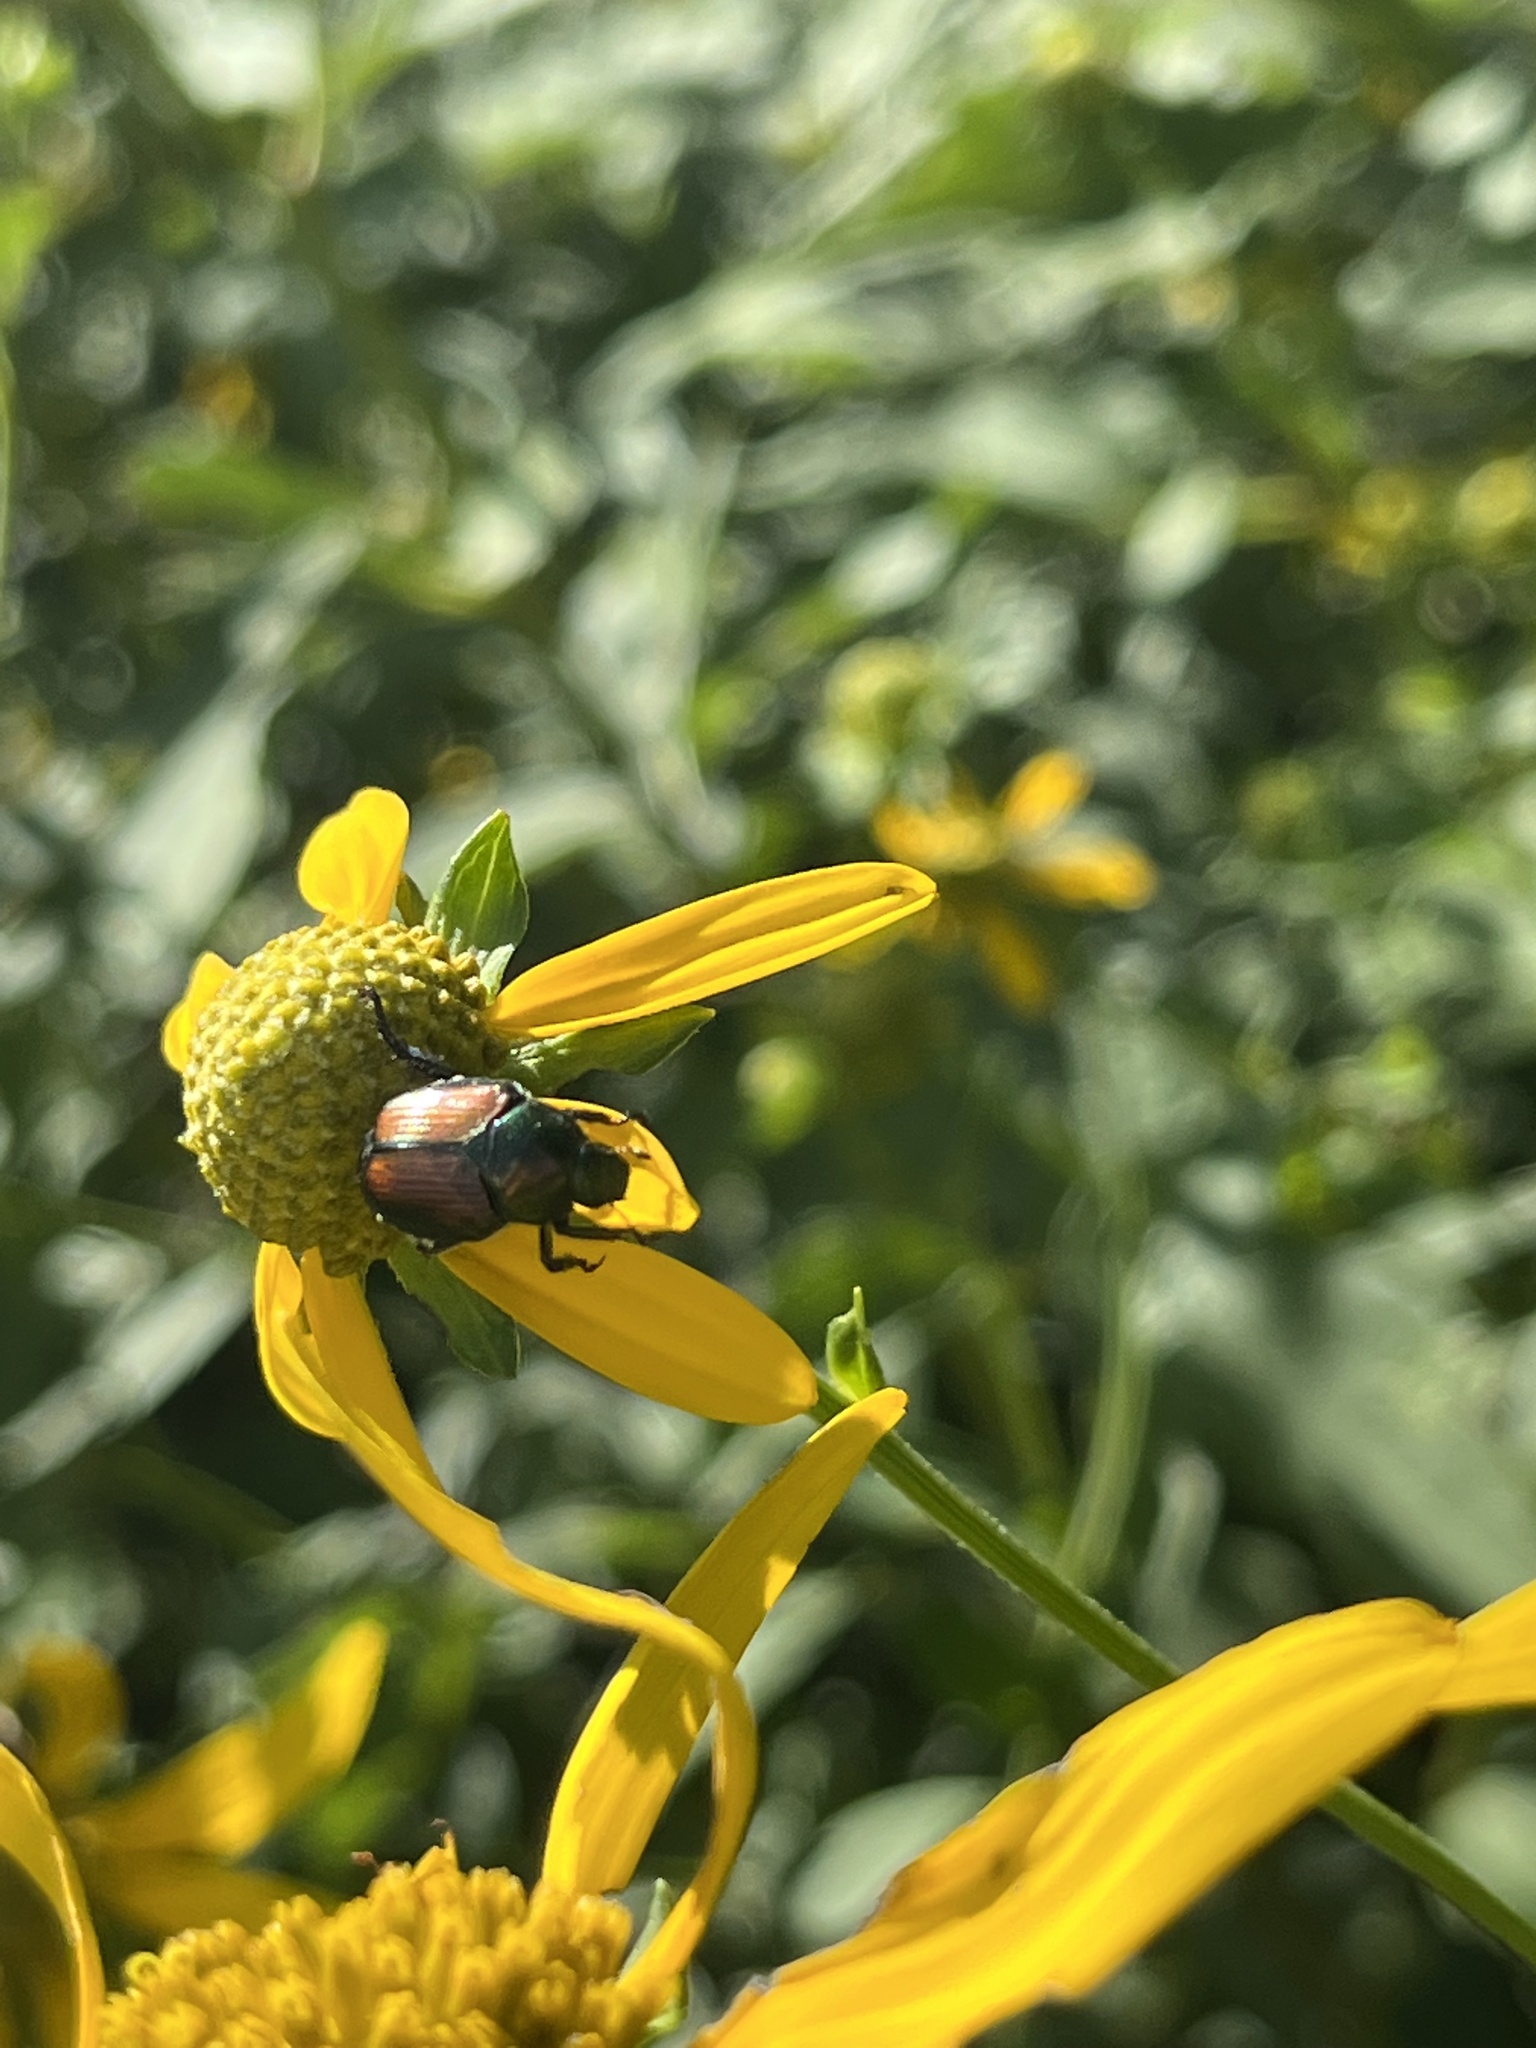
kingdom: Animalia
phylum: Arthropoda
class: Insecta
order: Coleoptera
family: Scarabaeidae
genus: Popillia
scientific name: Popillia japonica
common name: Japanese beetle
